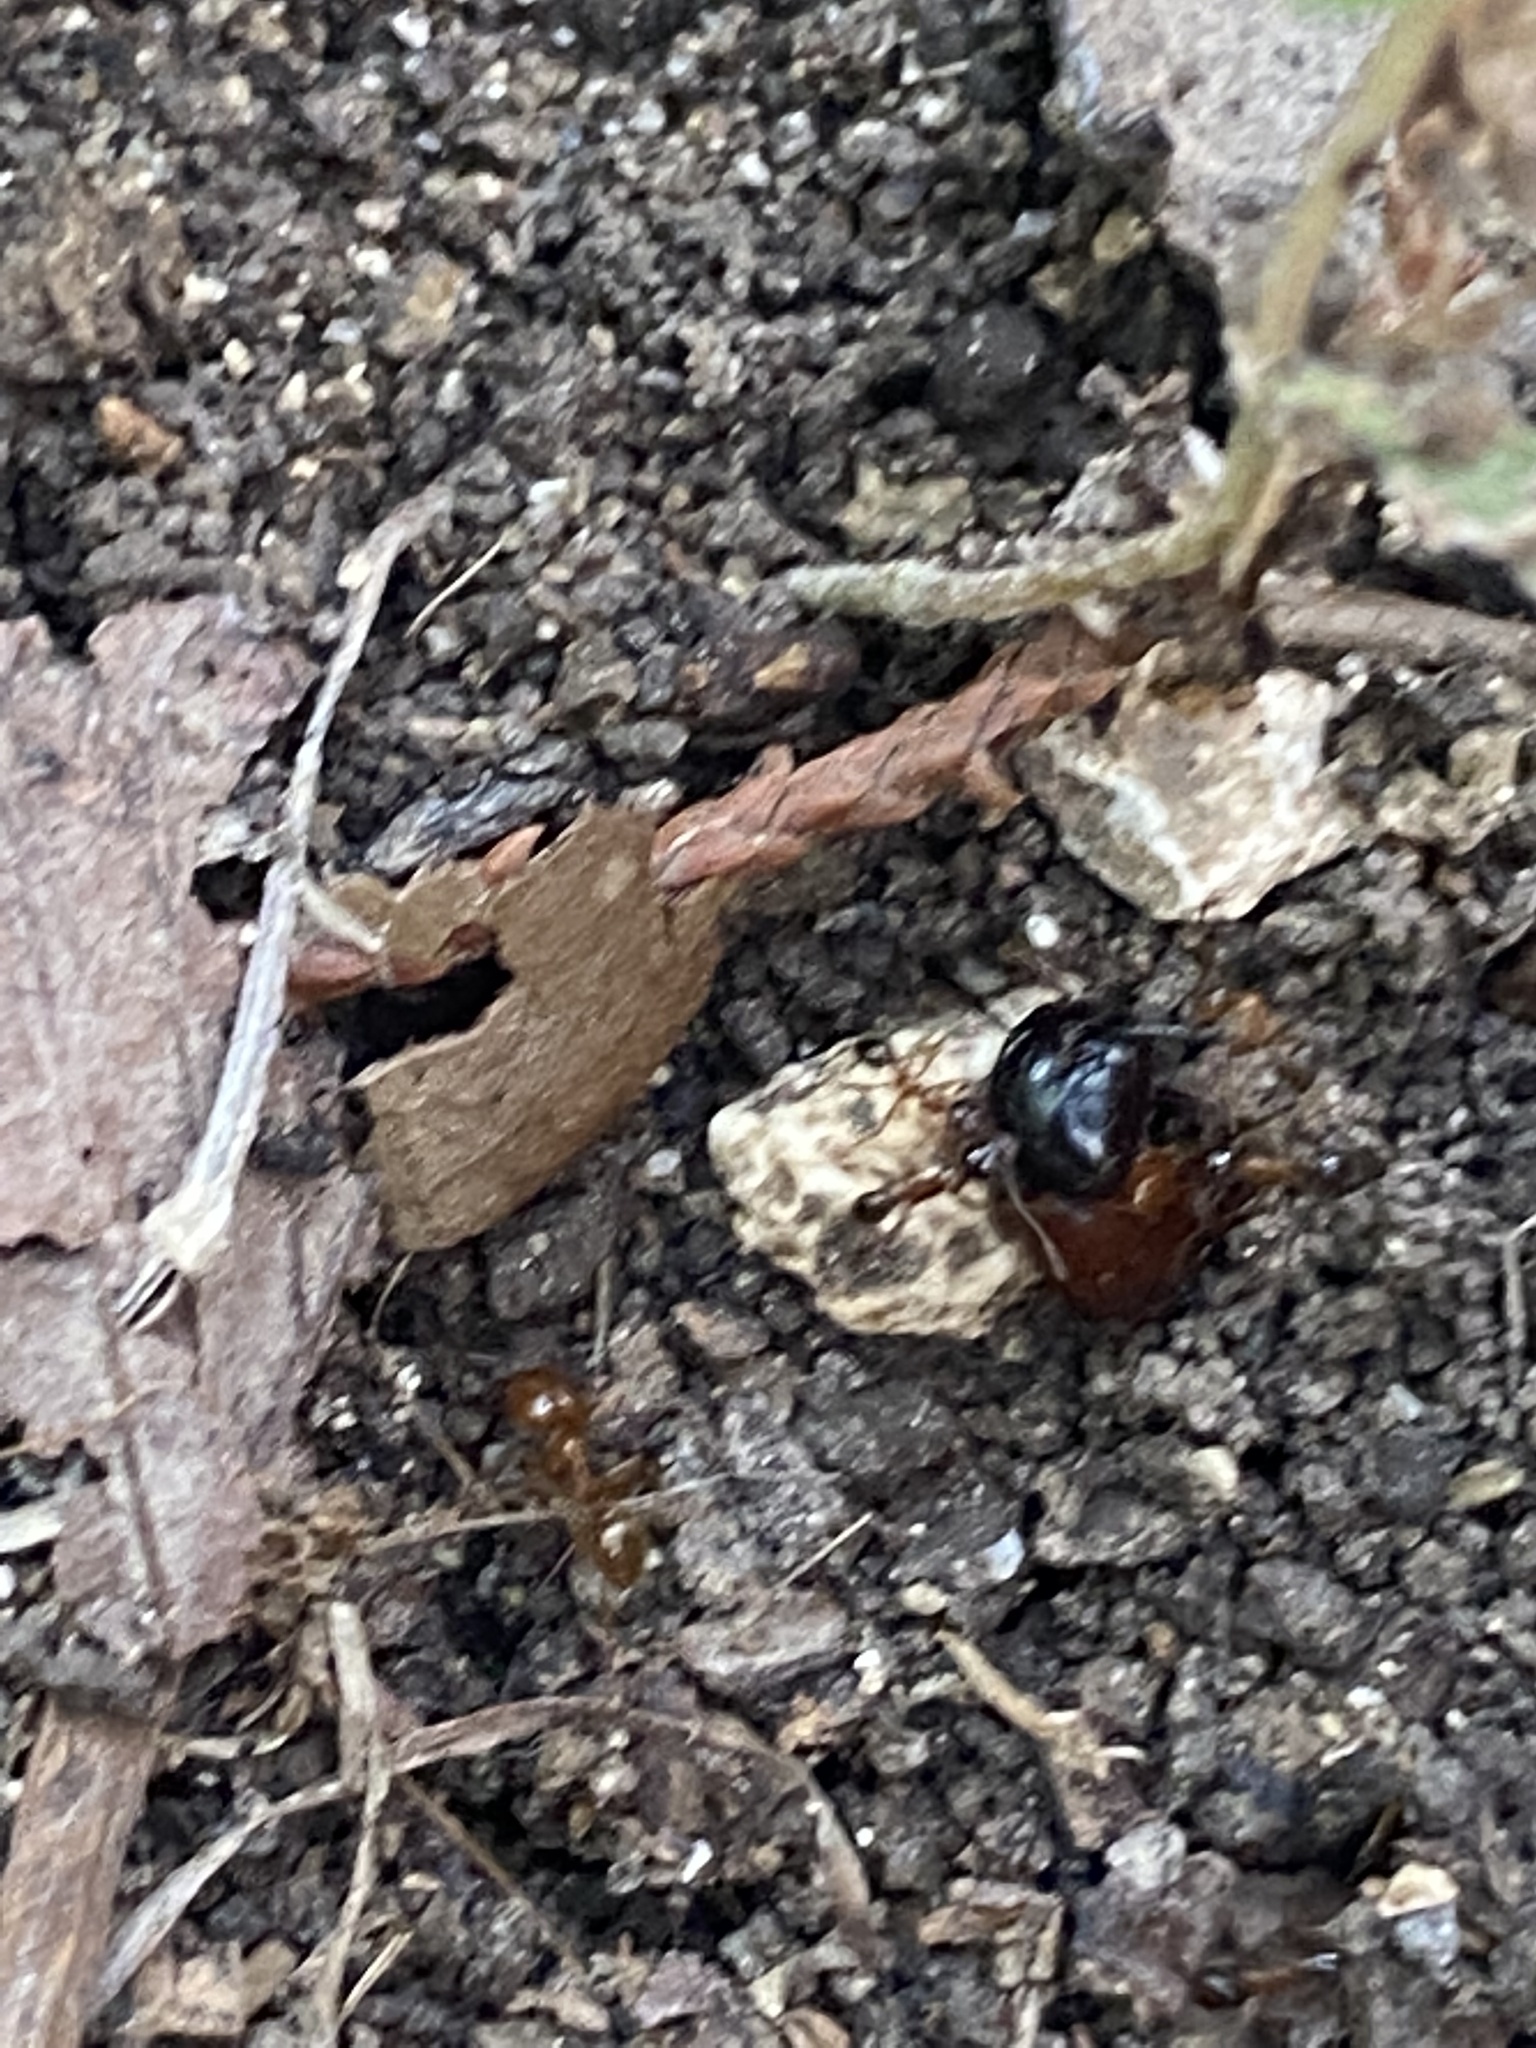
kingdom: Animalia
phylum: Arthropoda
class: Insecta
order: Hymenoptera
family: Formicidae
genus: Pheidole
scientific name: Pheidole dentata
